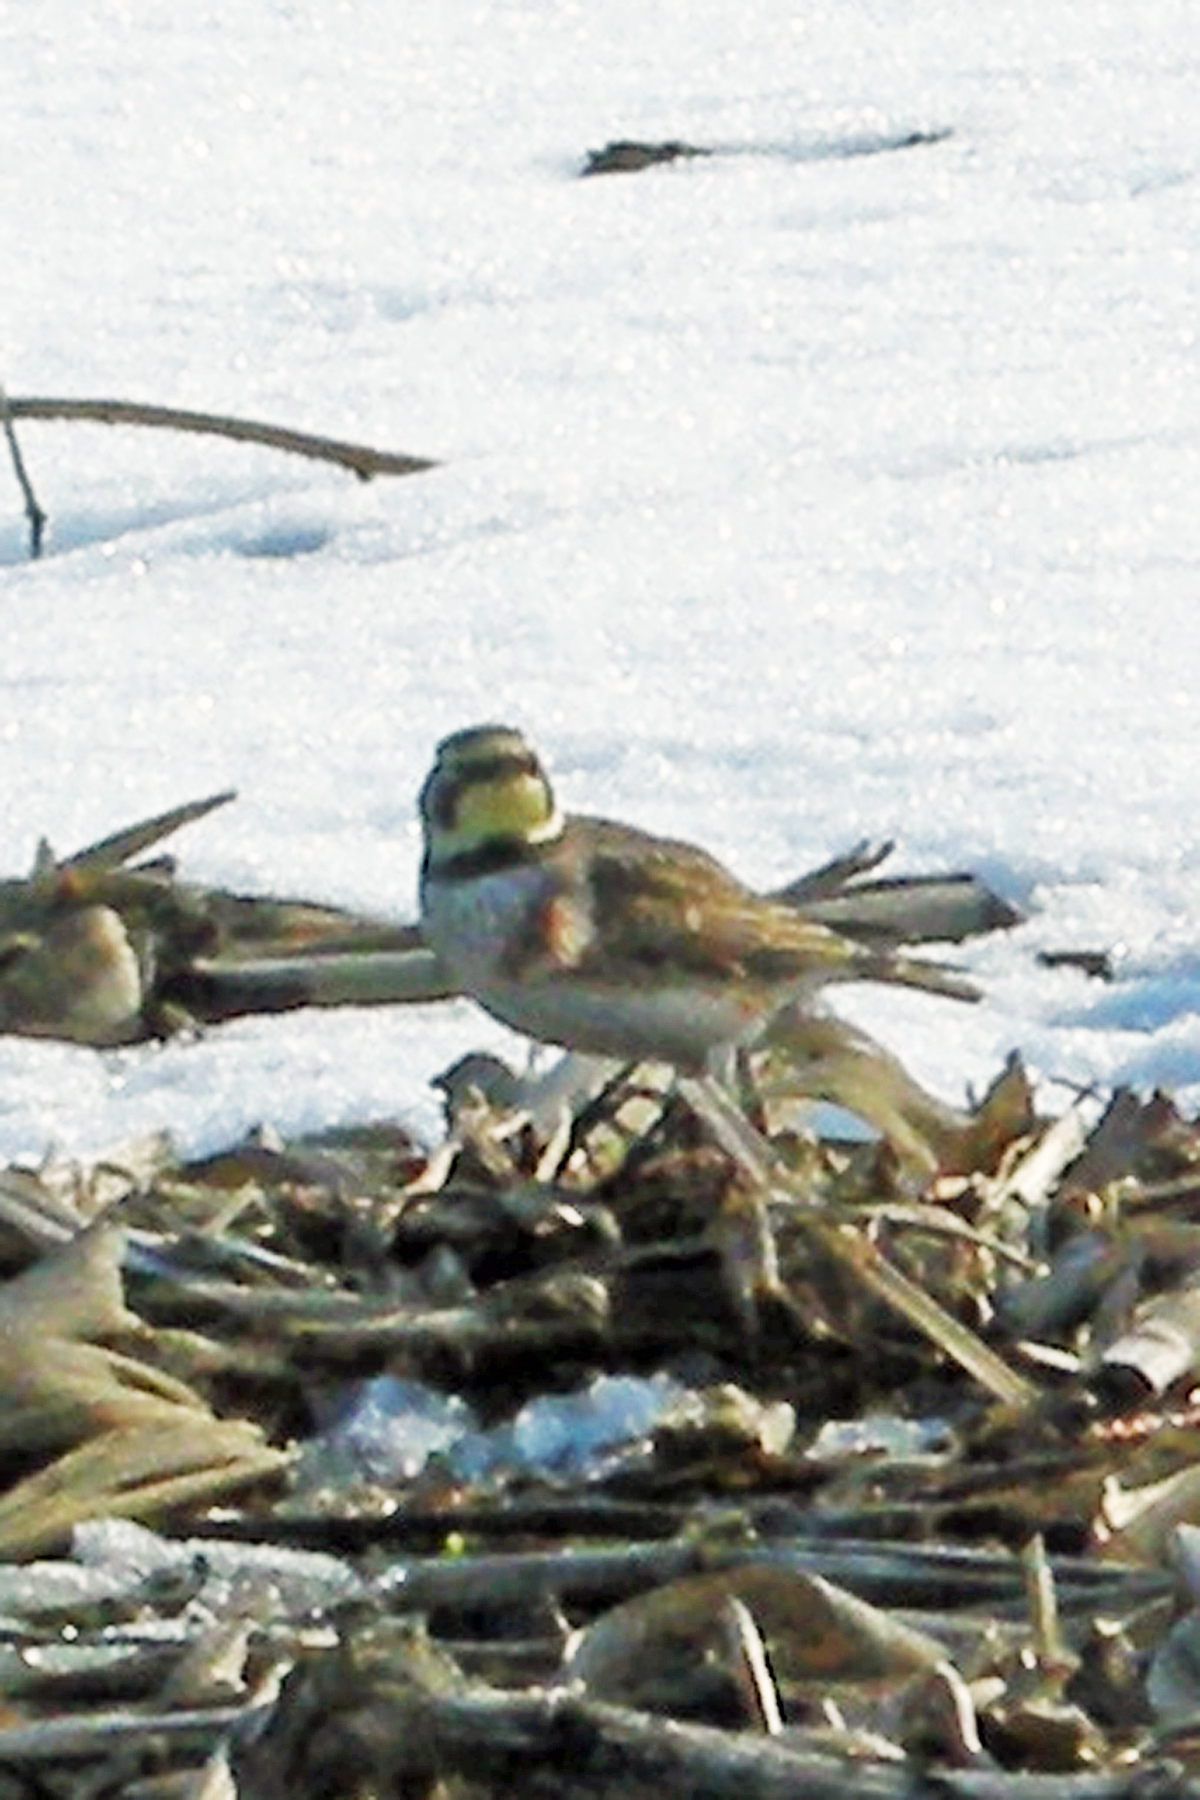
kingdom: Animalia
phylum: Chordata
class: Aves
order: Passeriformes
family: Alaudidae
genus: Eremophila
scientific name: Eremophila alpestris
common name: Horned lark
